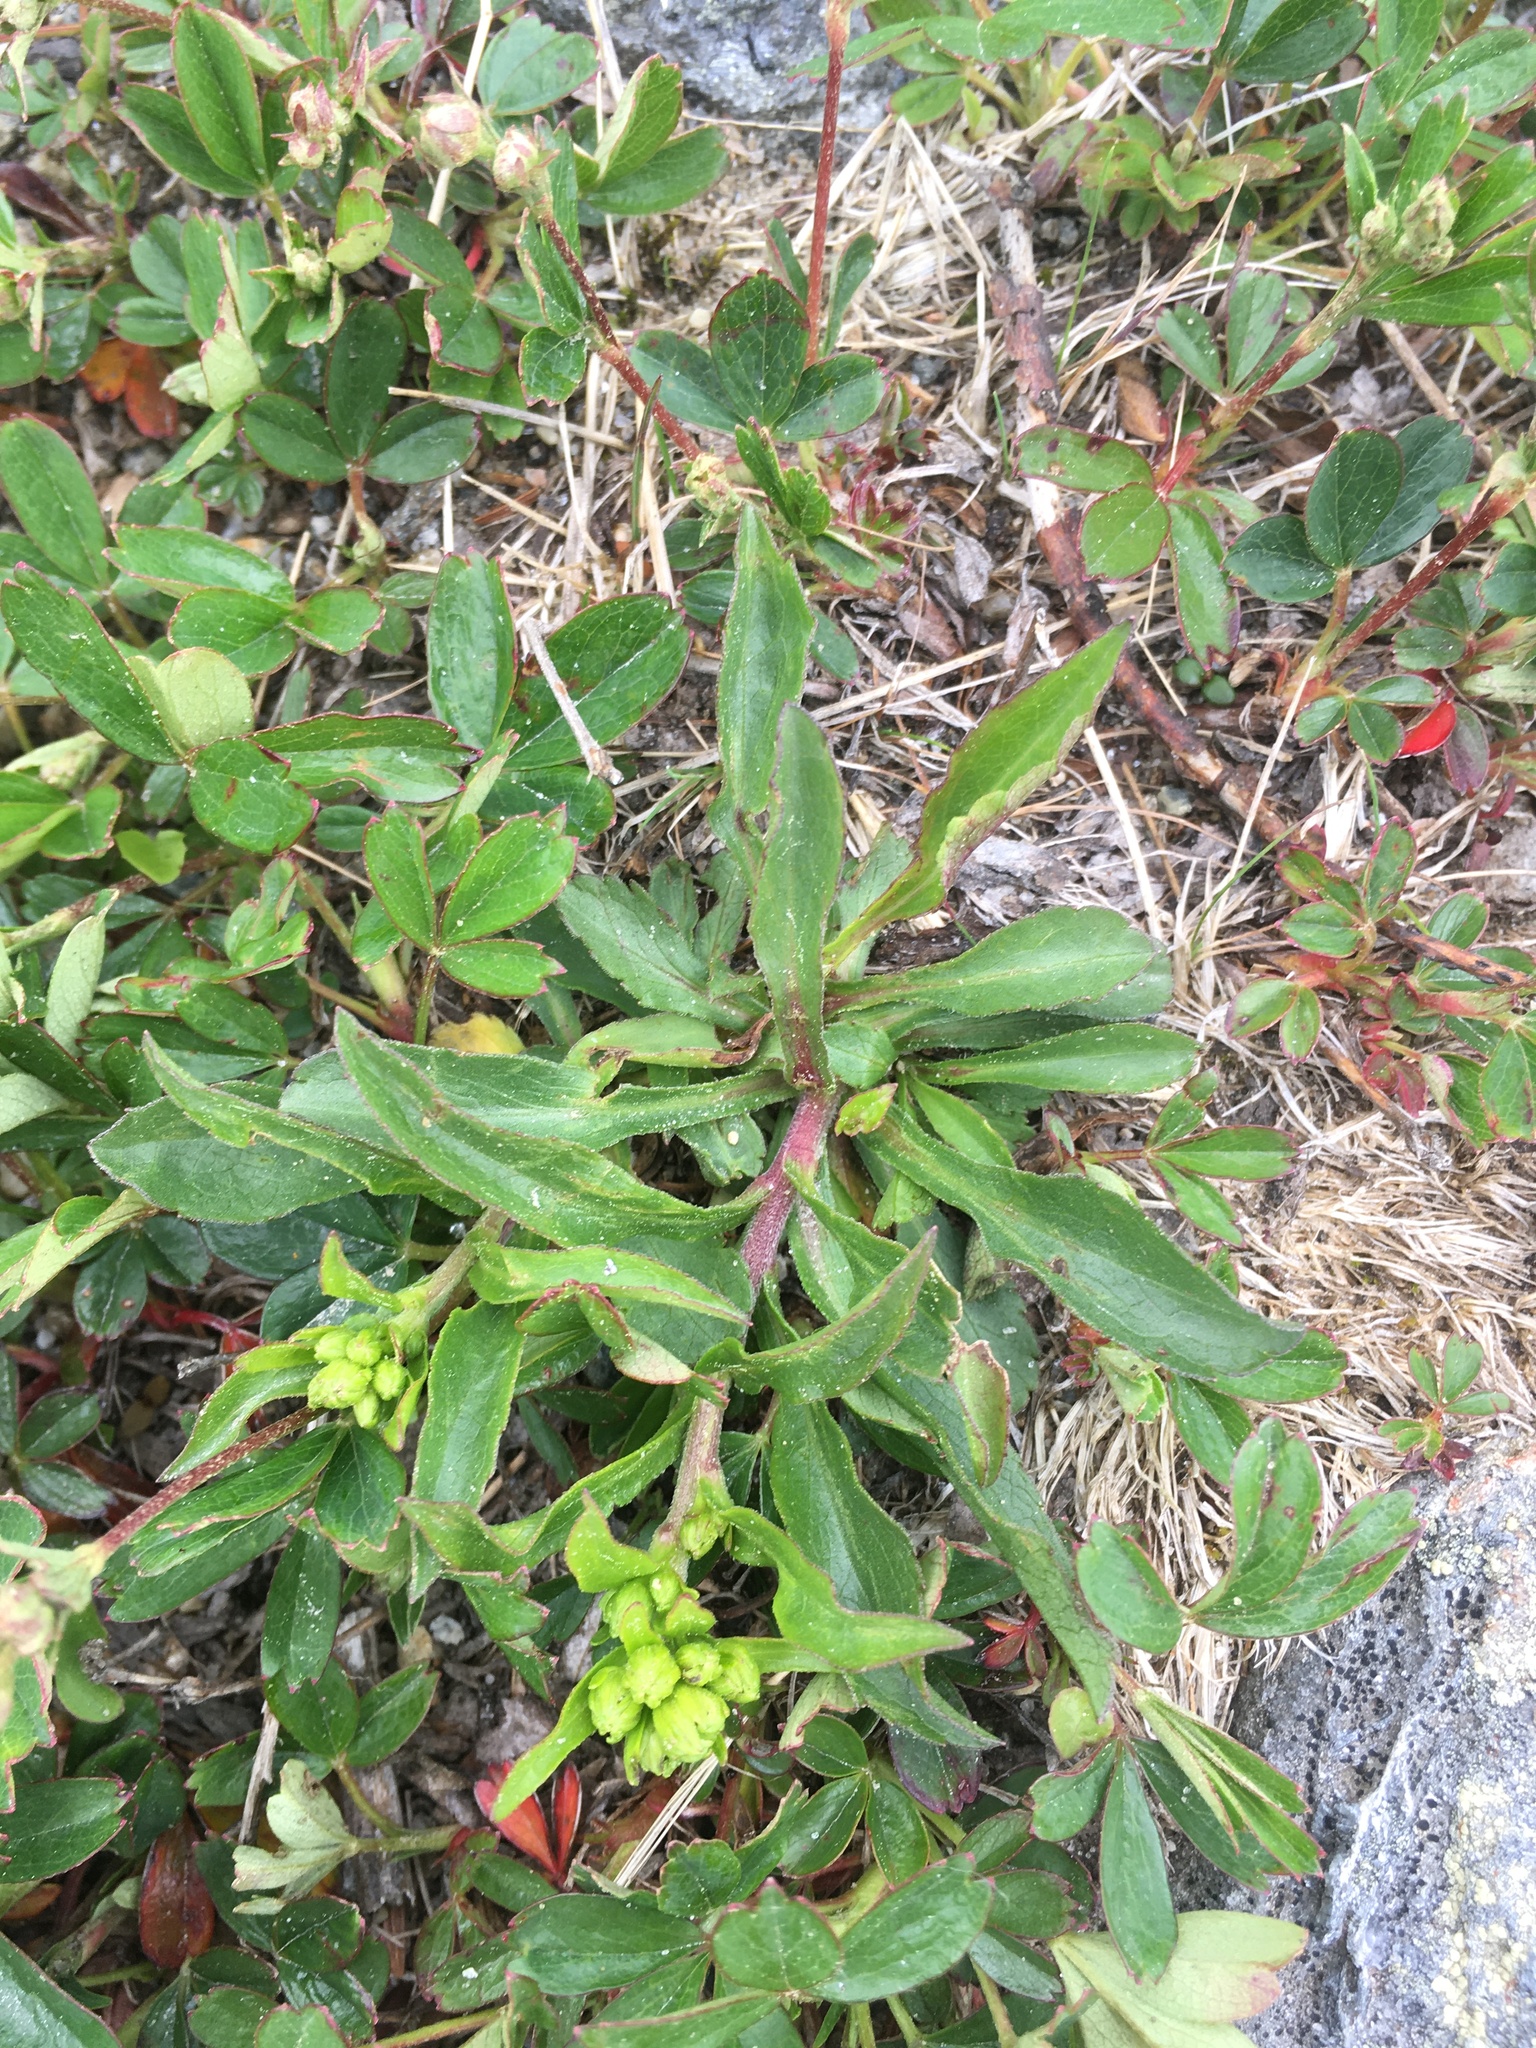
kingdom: Plantae
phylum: Tracheophyta
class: Magnoliopsida
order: Asterales
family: Asteraceae
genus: Solidago
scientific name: Solidago leiocarpa
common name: Cutler's alpine goldenrod
